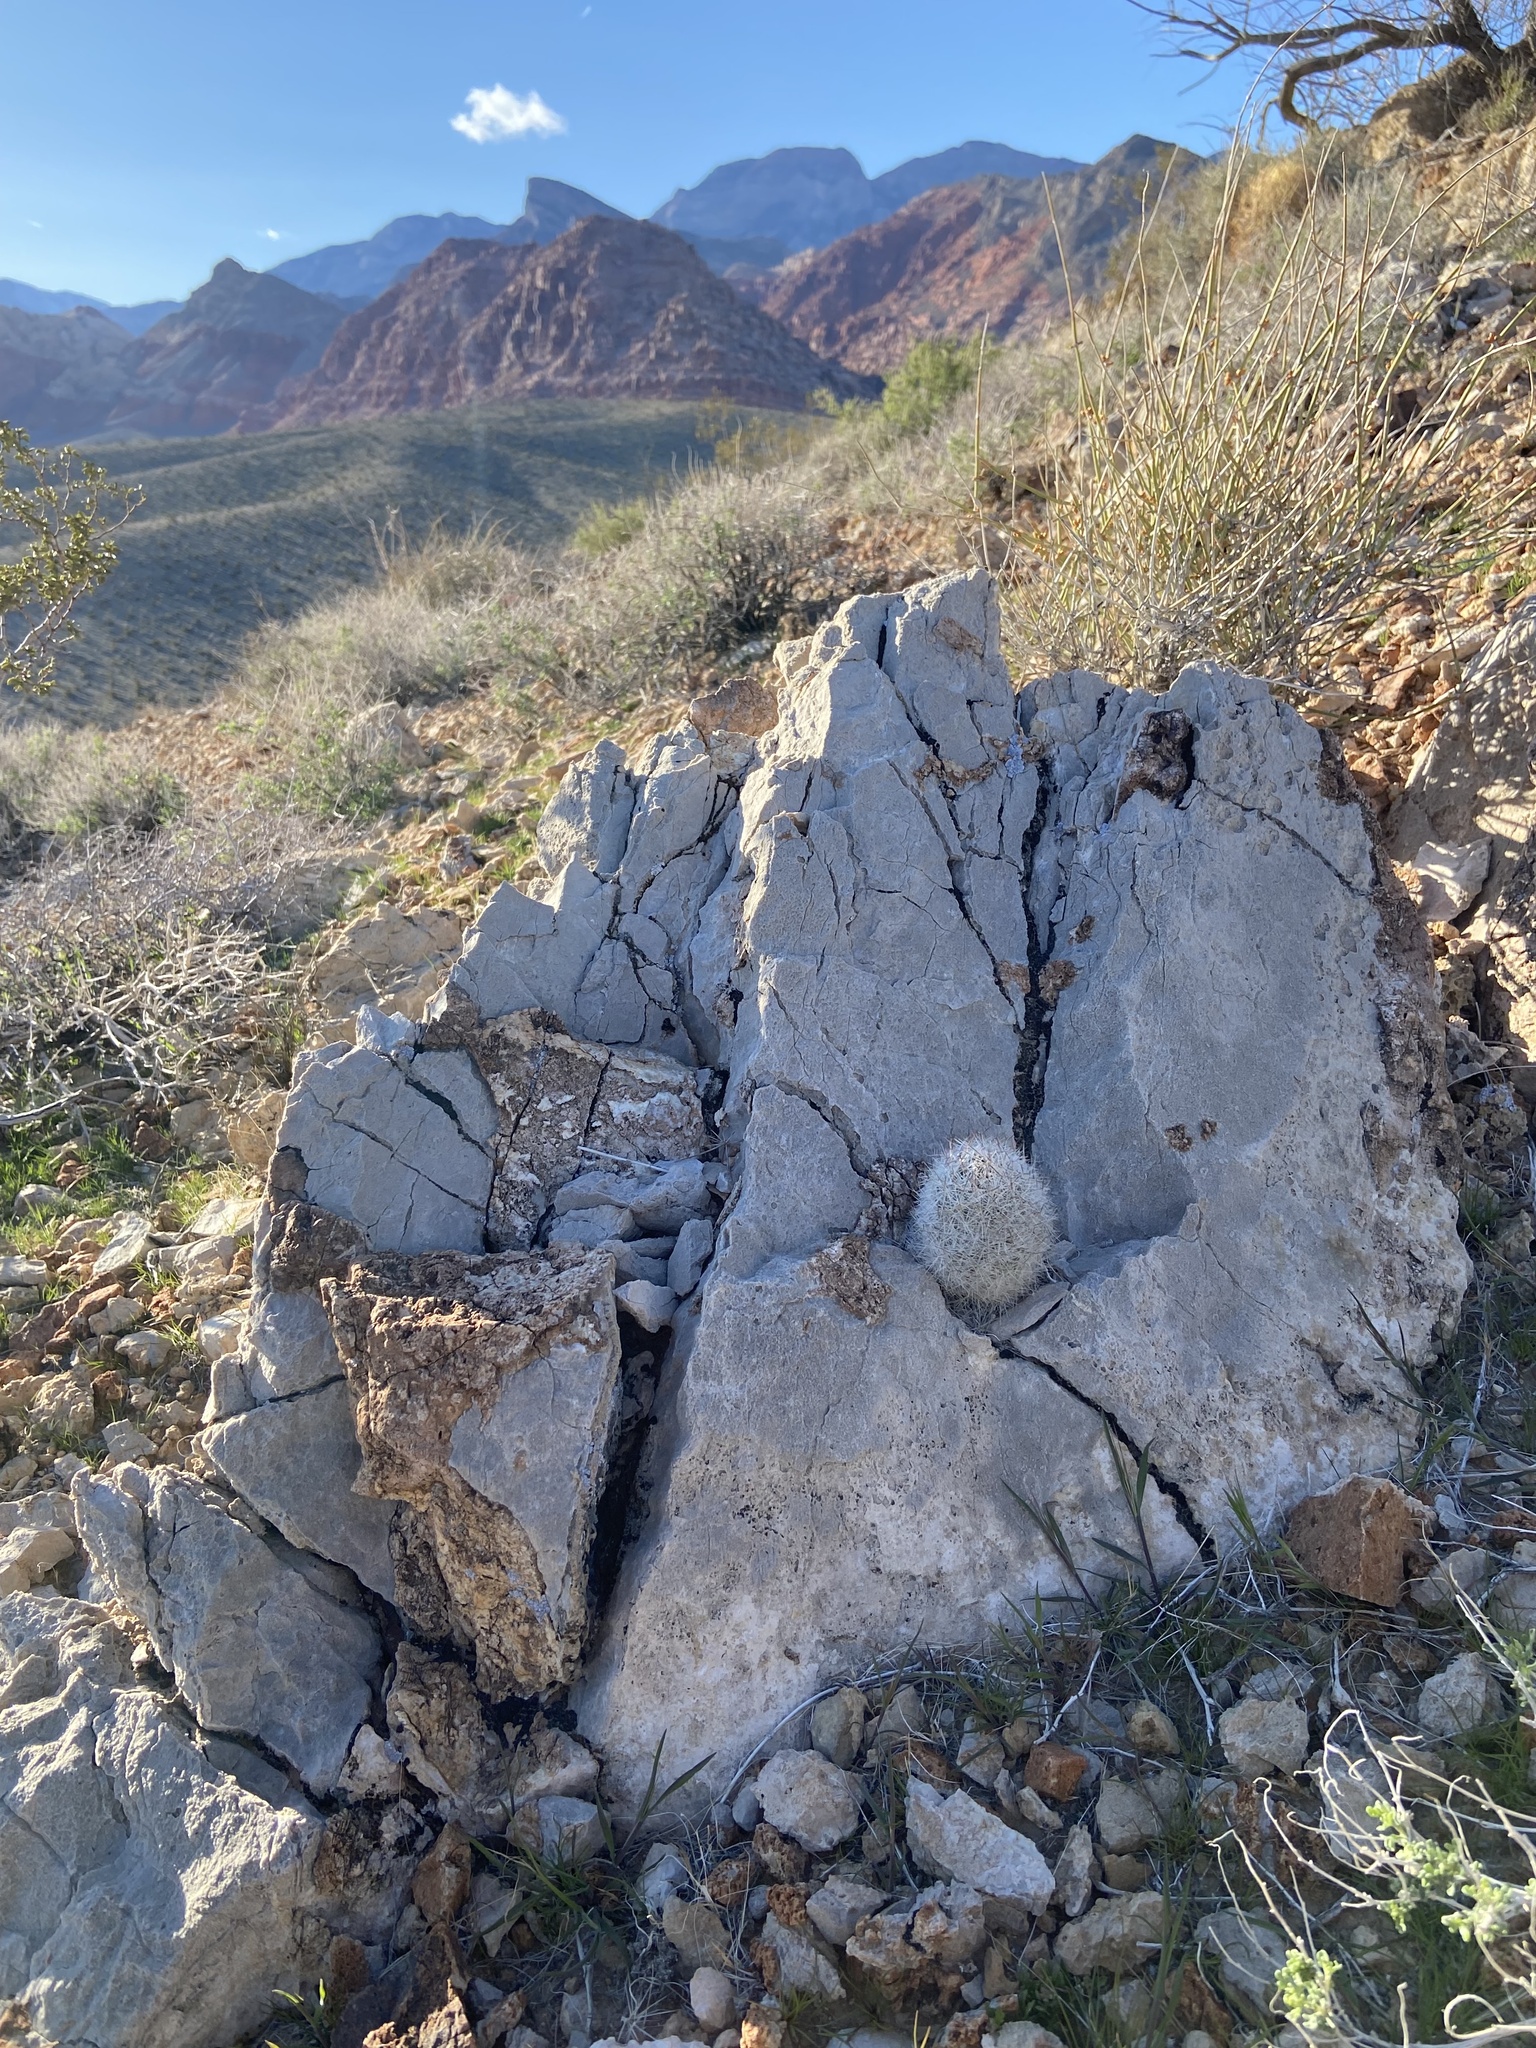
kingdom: Plantae
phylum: Tracheophyta
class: Magnoliopsida
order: Caryophyllales
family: Cactaceae
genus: Pelecyphora
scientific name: Pelecyphora dasyacantha
